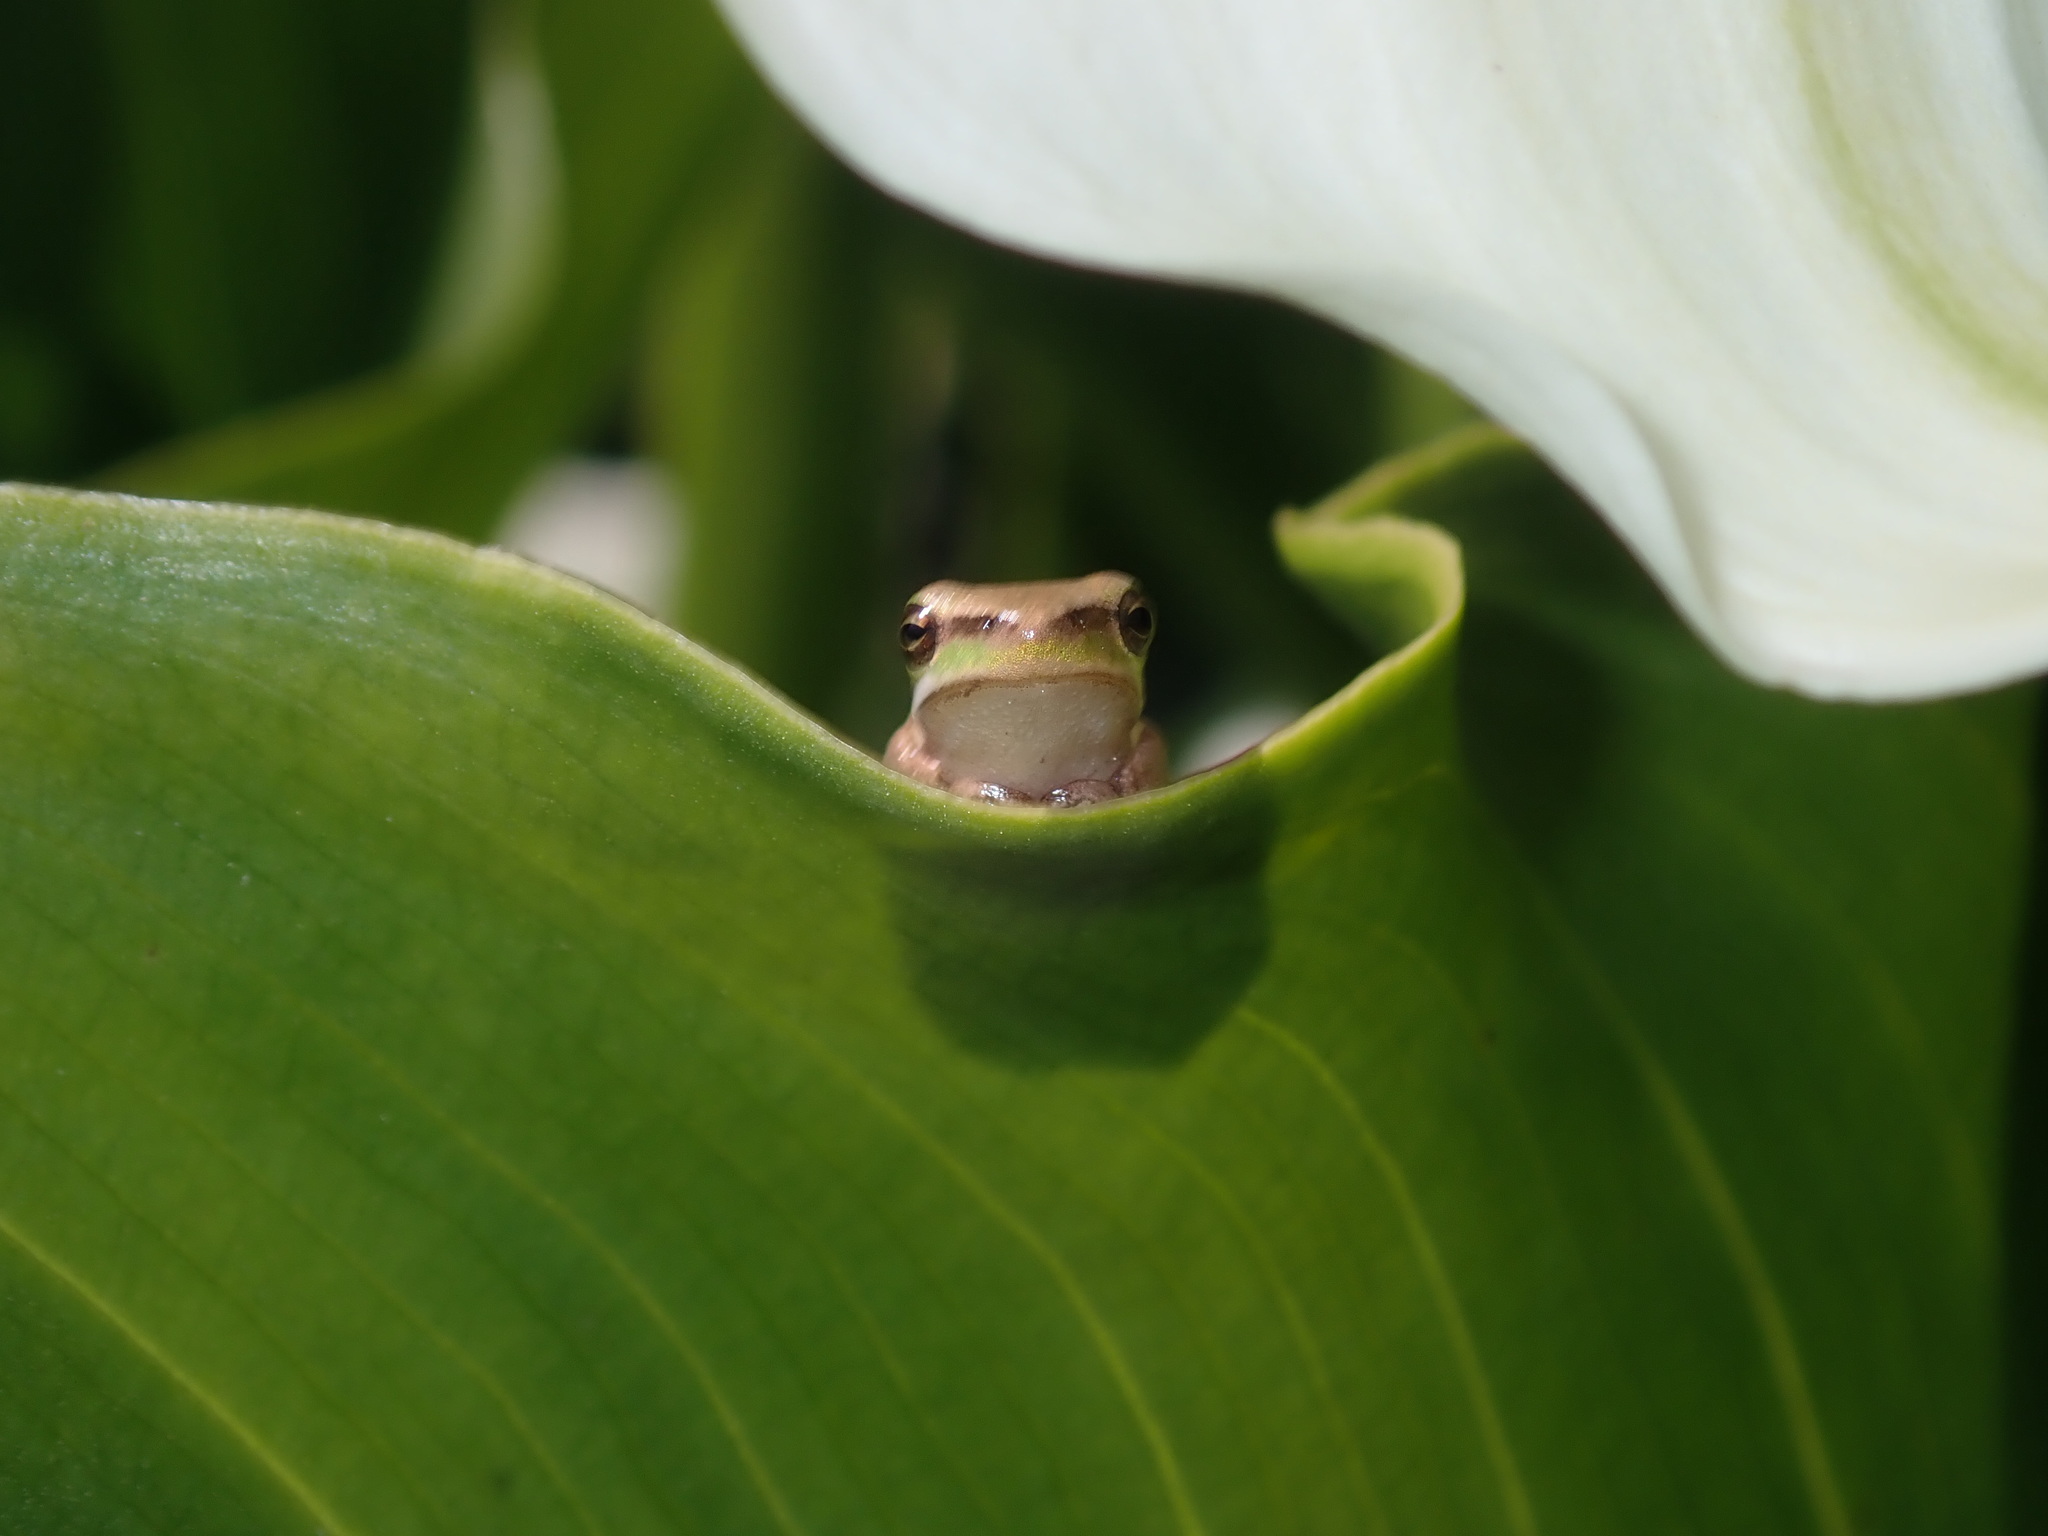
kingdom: Animalia
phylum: Chordata
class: Amphibia
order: Anura
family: Pelodryadidae
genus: Litoria
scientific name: Litoria fallax
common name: Eastern dwarf treefrog
